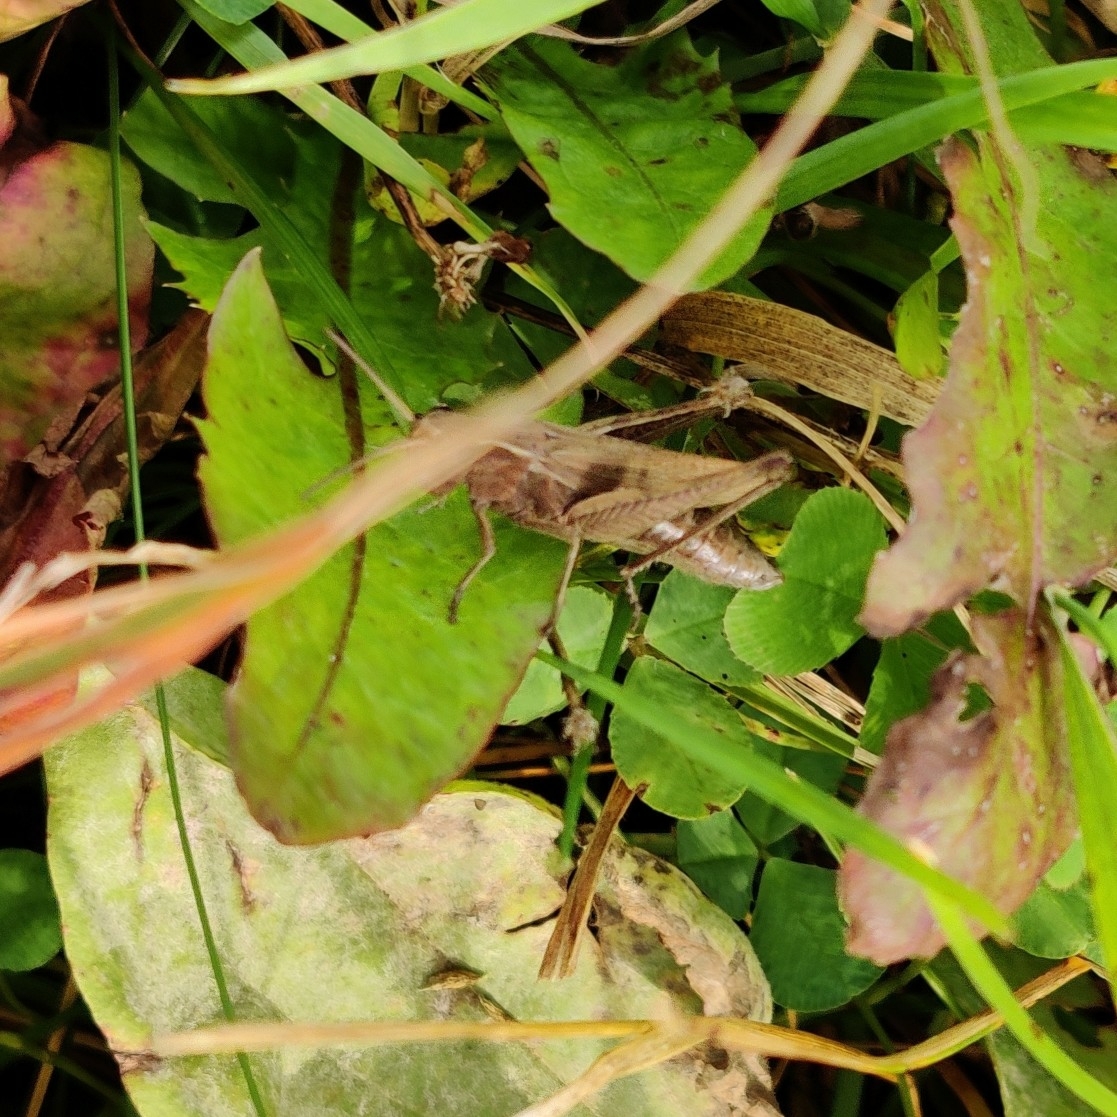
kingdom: Animalia
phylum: Arthropoda
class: Insecta
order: Orthoptera
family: Acrididae
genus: Chorthippus
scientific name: Chorthippus dorsatus
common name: Steppe grasshopper
